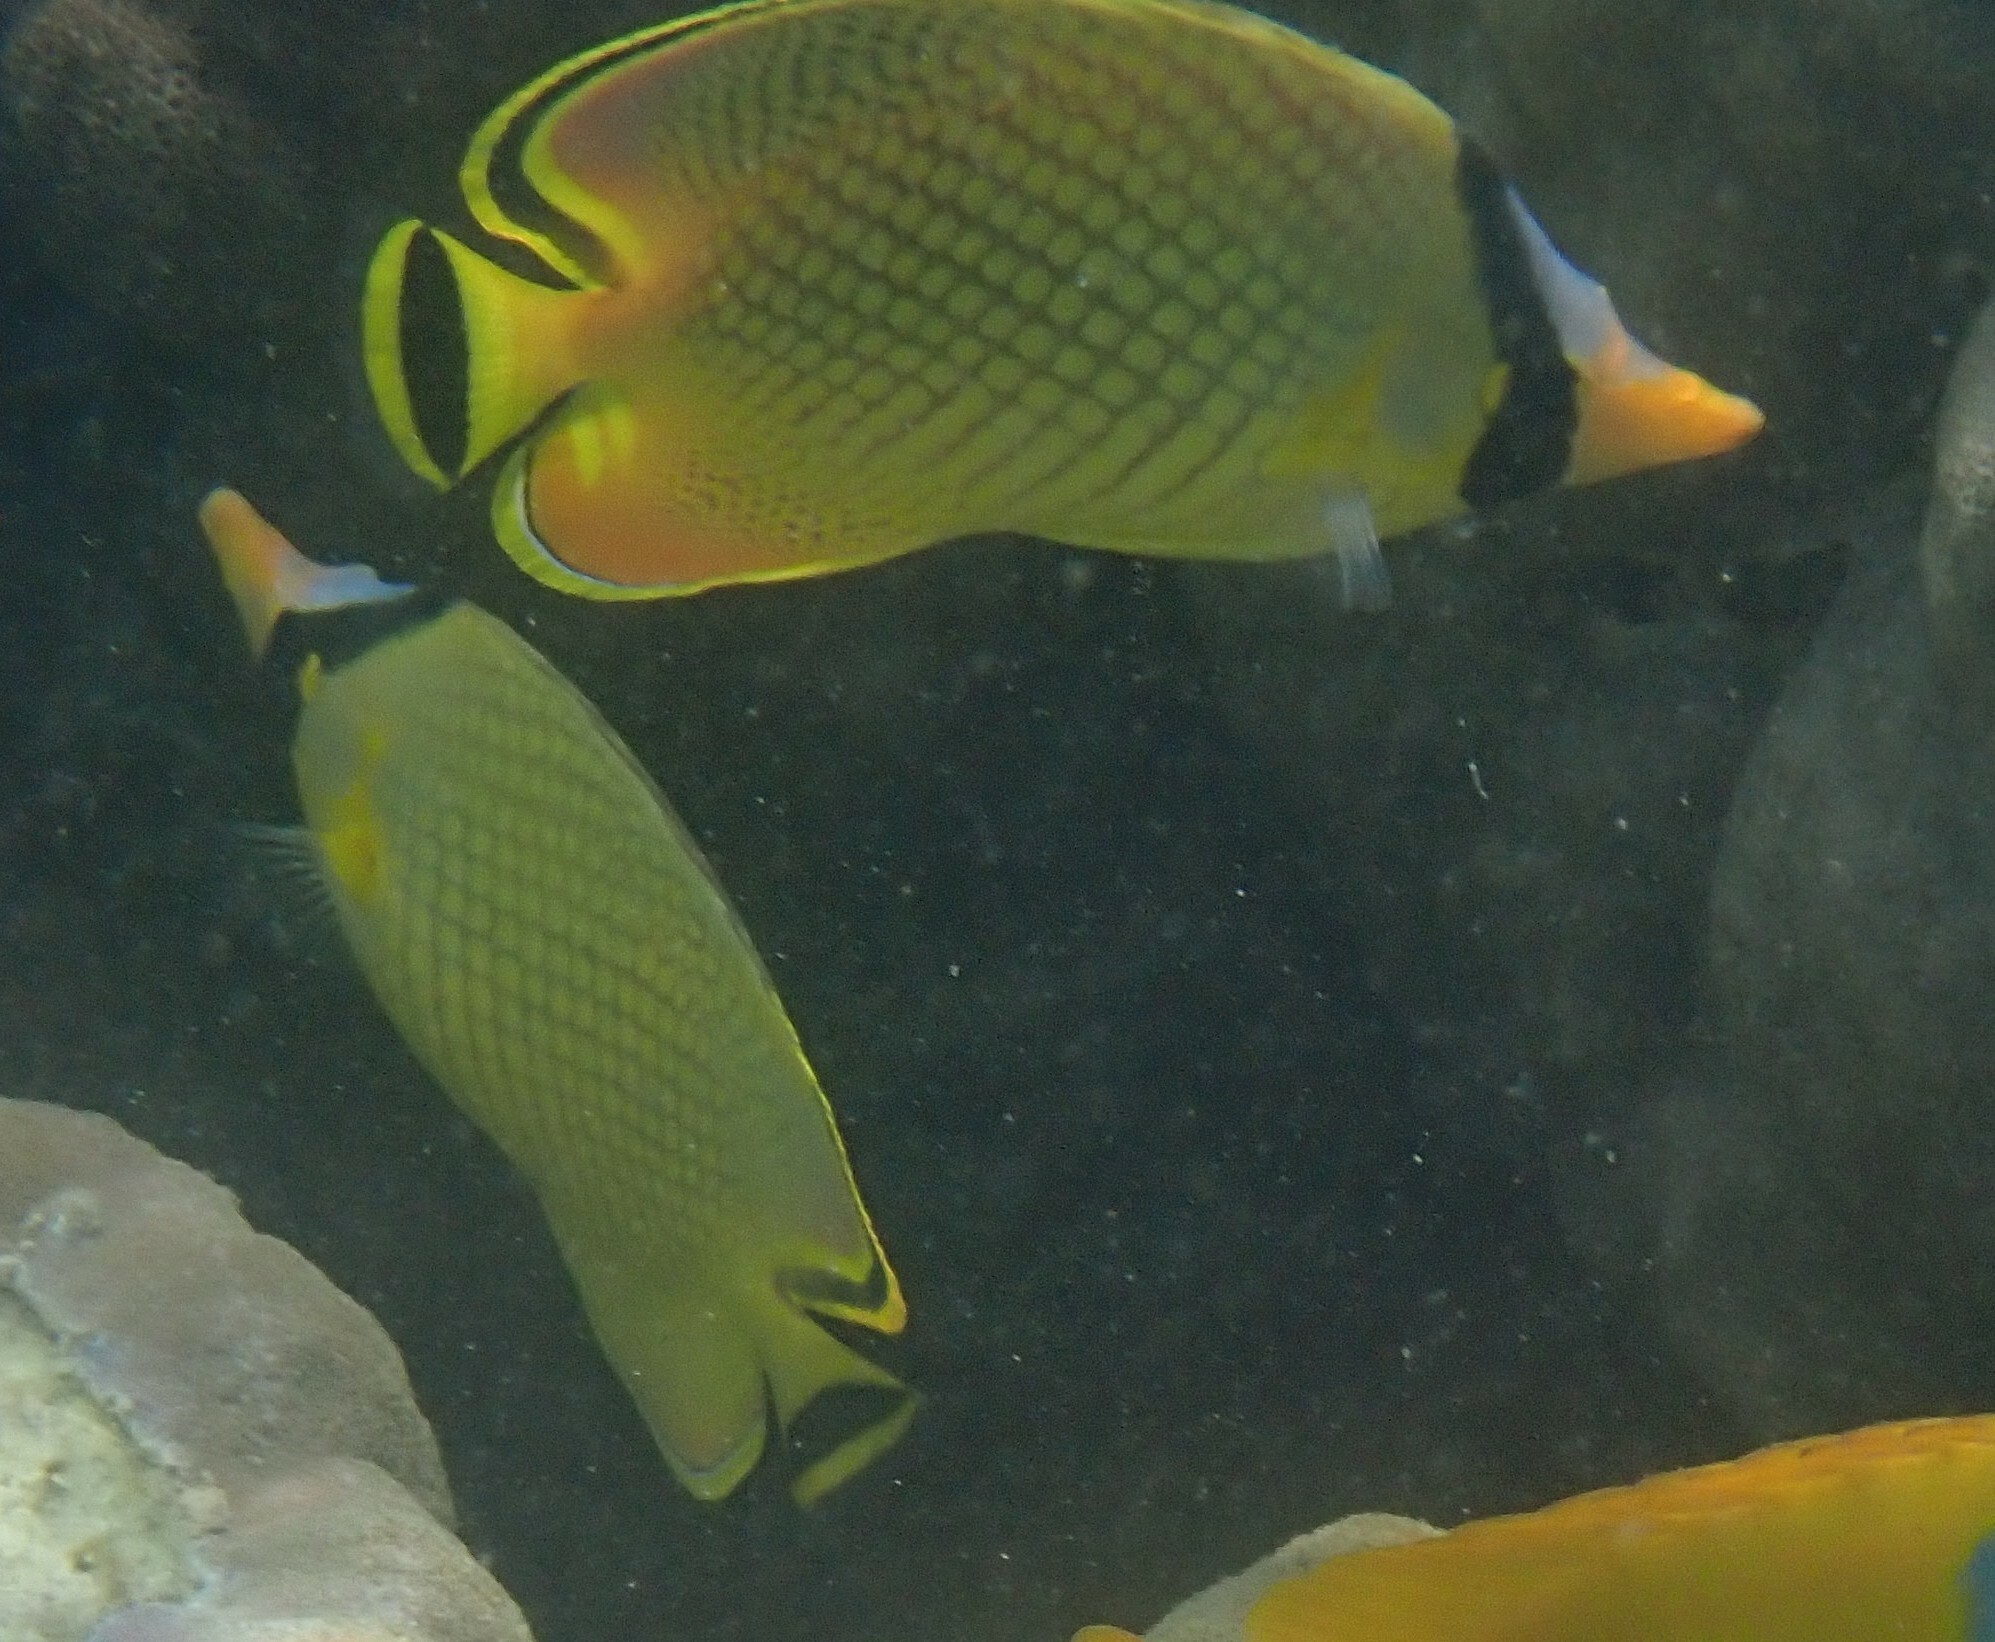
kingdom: Animalia
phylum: Chordata
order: Perciformes
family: Chaetodontidae
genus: Chaetodon
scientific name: Chaetodon rafflesii
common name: Latticed butterflyfish
